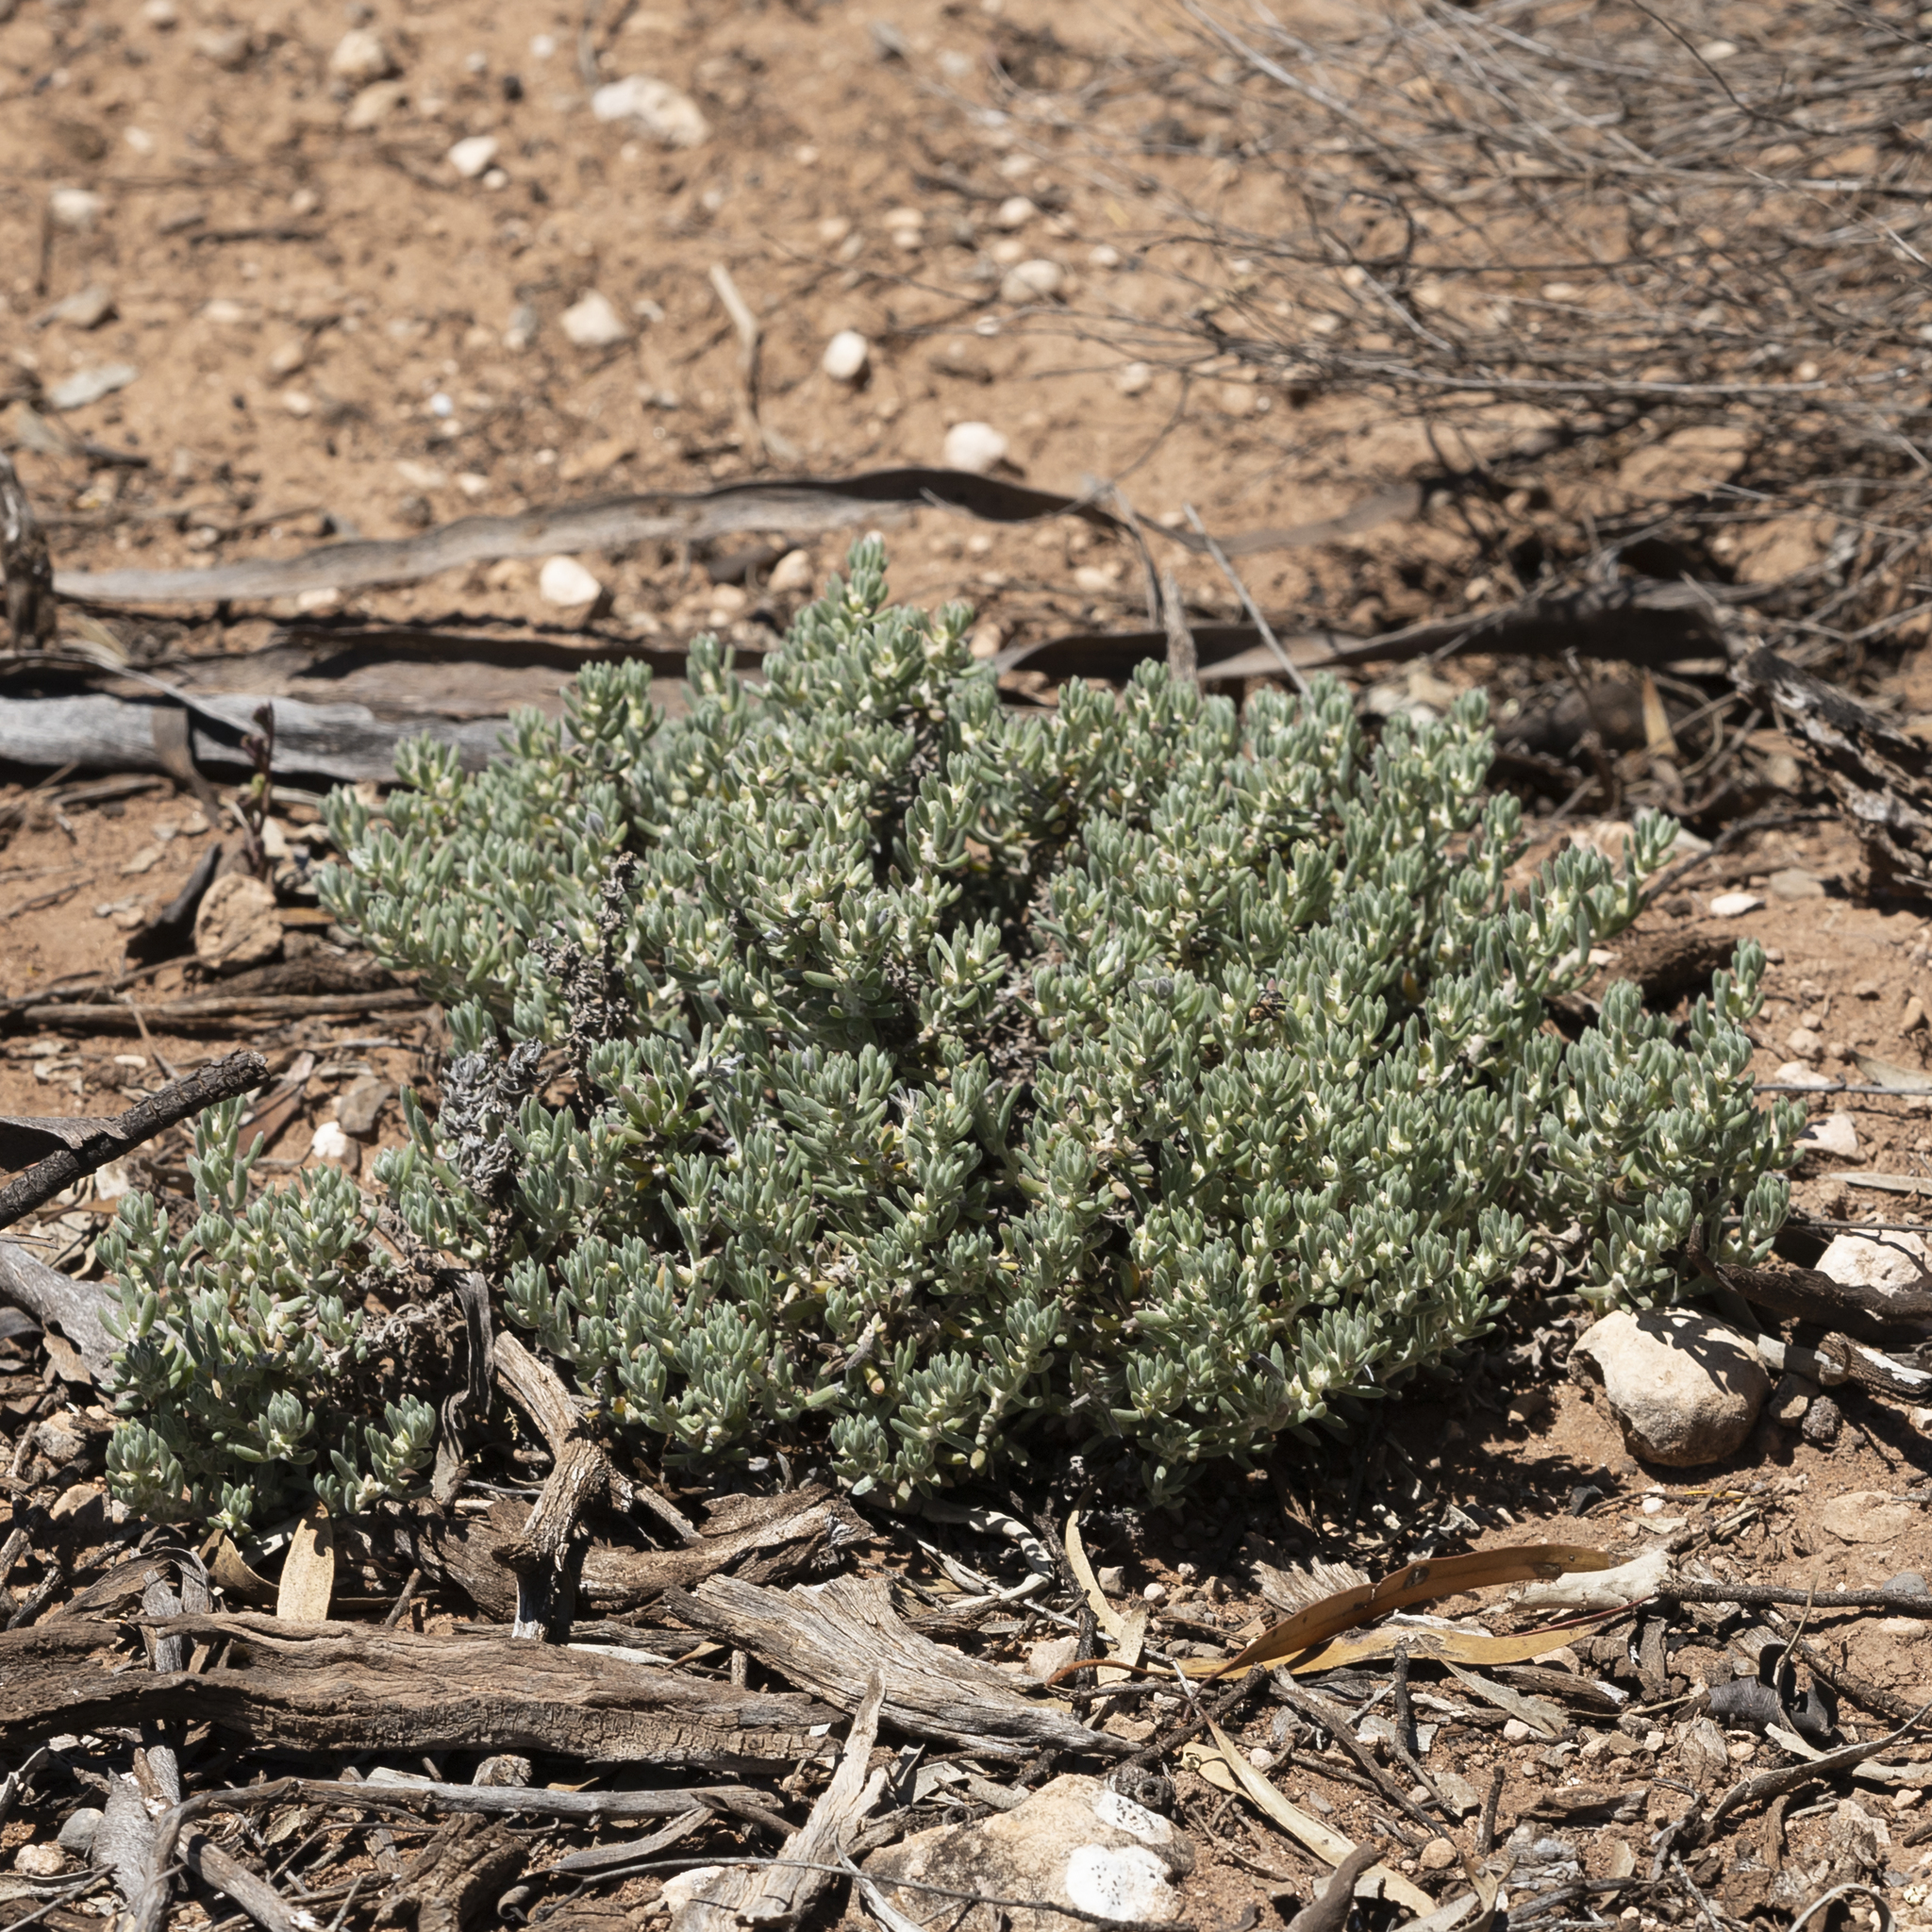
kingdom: Plantae
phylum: Tracheophyta
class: Magnoliopsida
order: Caryophyllales
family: Amaranthaceae
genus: Sclerolaena
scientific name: Sclerolaena diacantha
